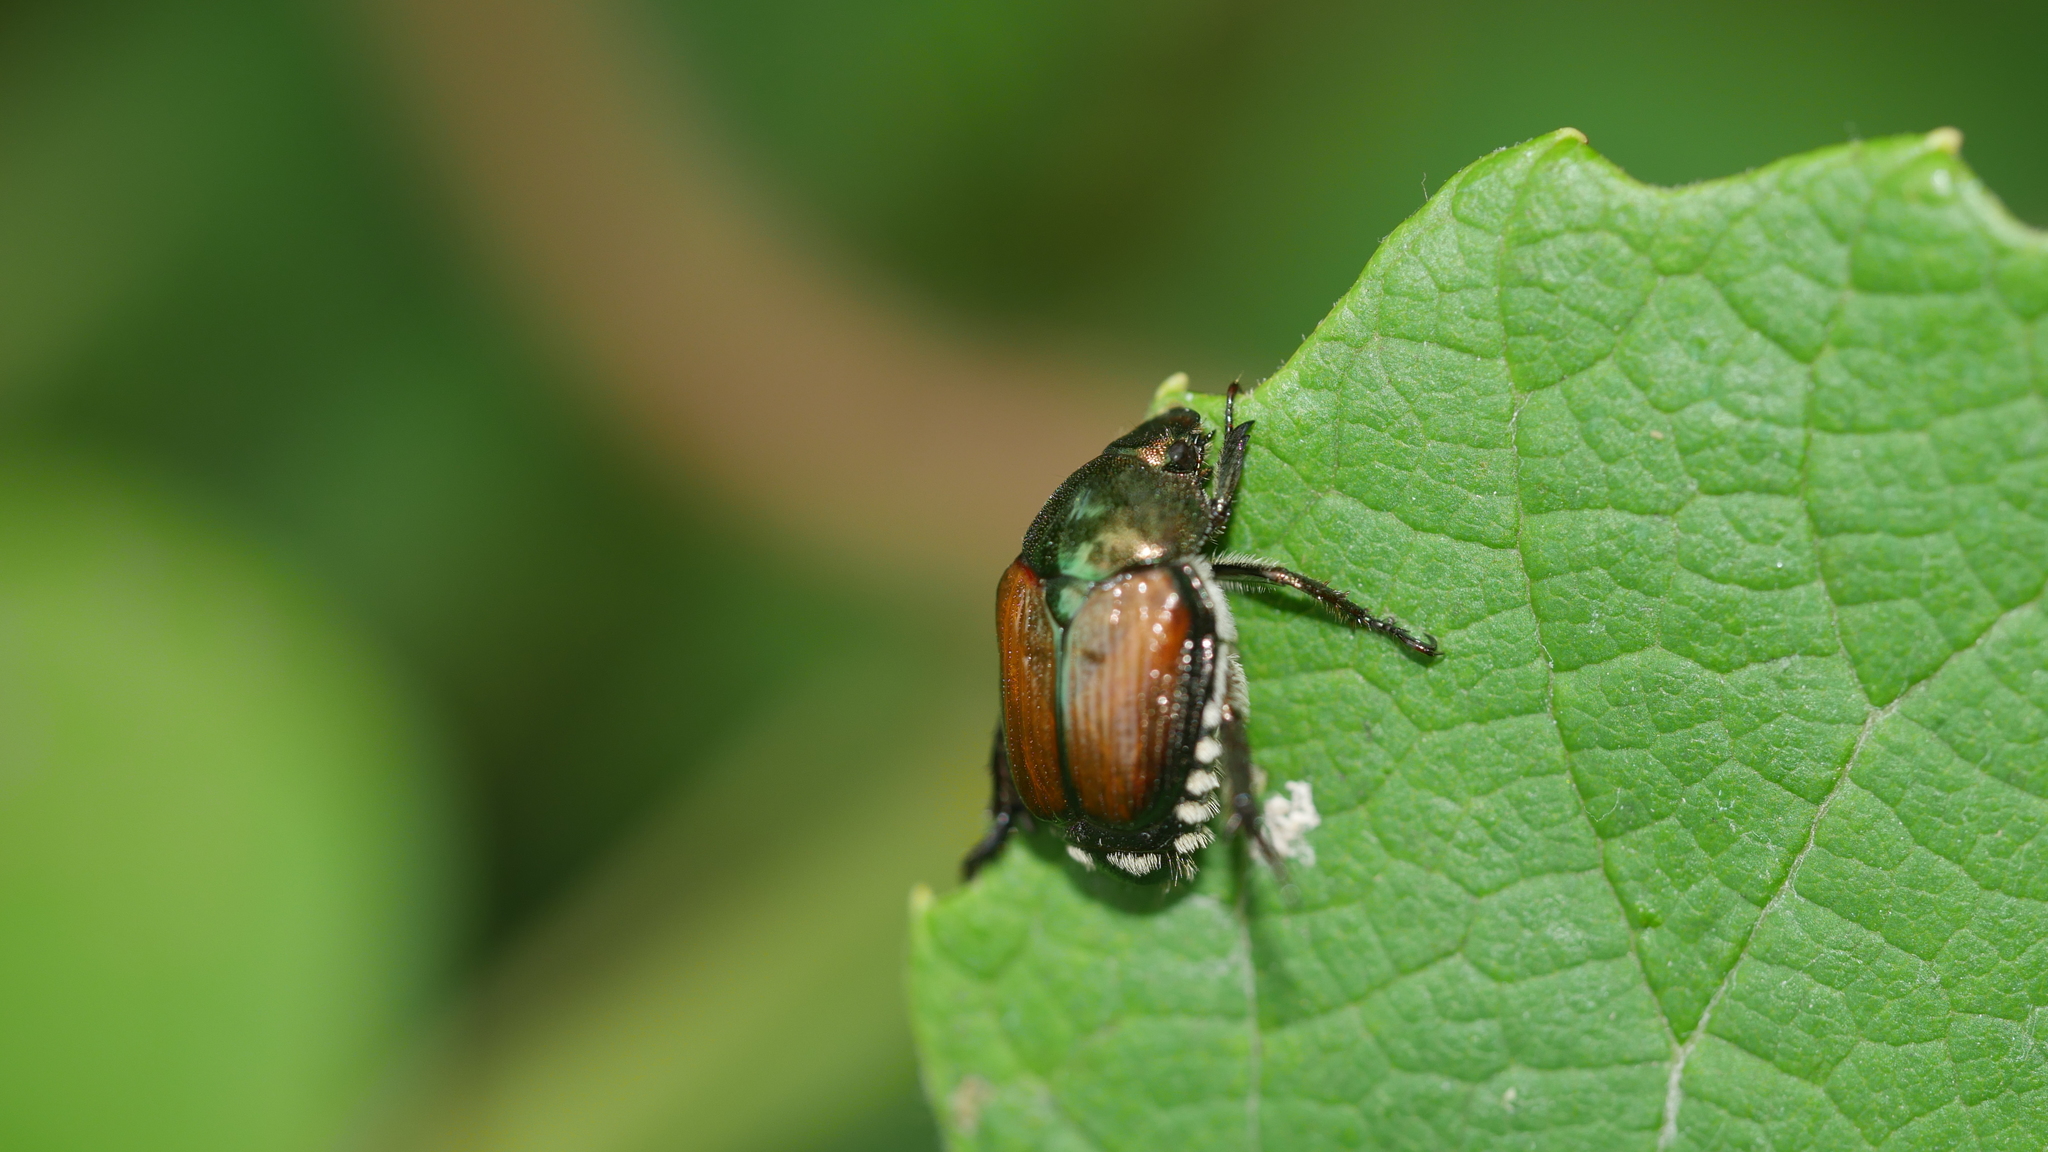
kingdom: Animalia
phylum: Arthropoda
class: Insecta
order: Coleoptera
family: Scarabaeidae
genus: Popillia
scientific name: Popillia japonica
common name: Japanese beetle
